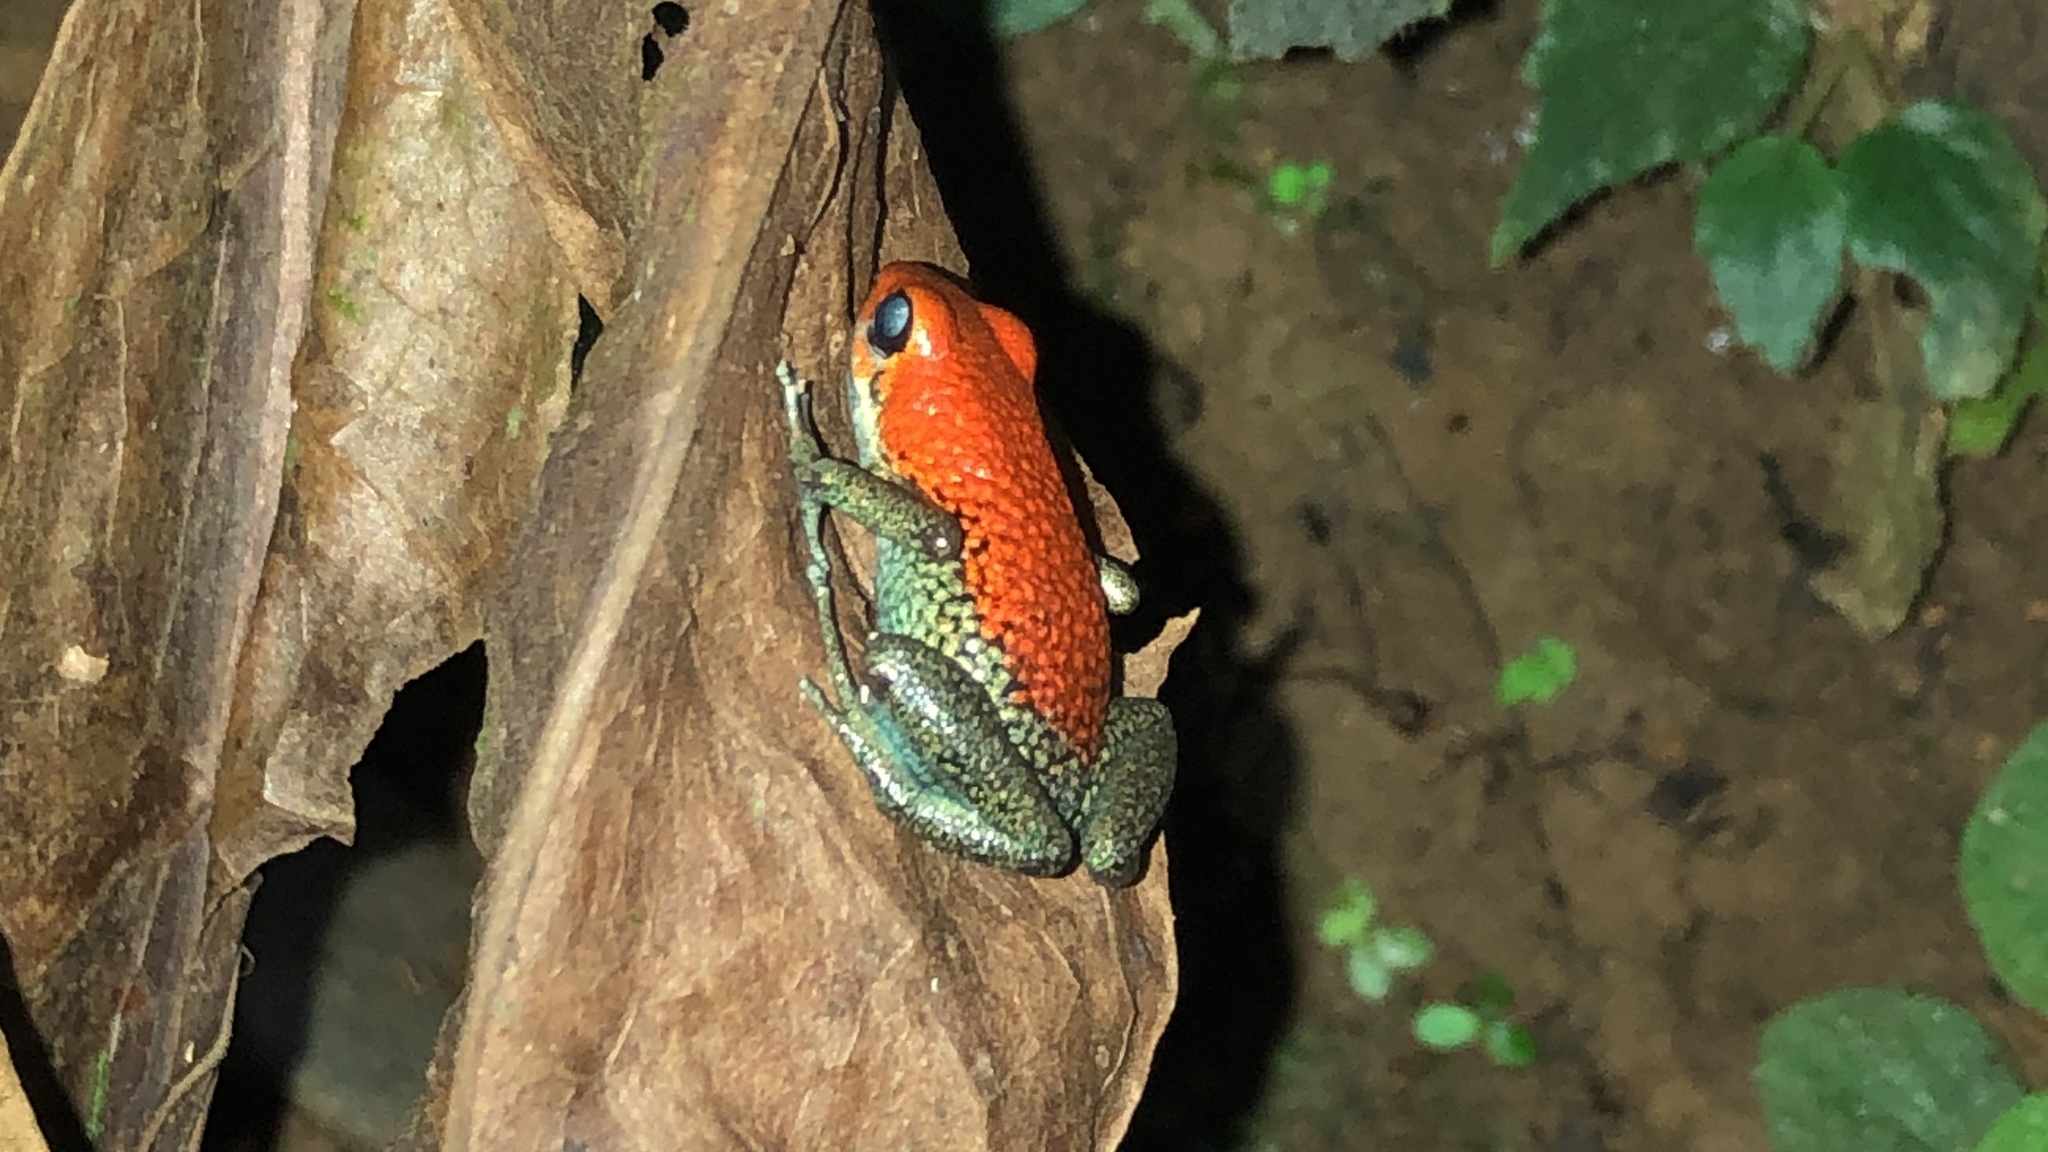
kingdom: Animalia
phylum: Chordata
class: Amphibia
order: Anura
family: Dendrobatidae
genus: Oophaga
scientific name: Oophaga granulifera
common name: Granular poison frog
